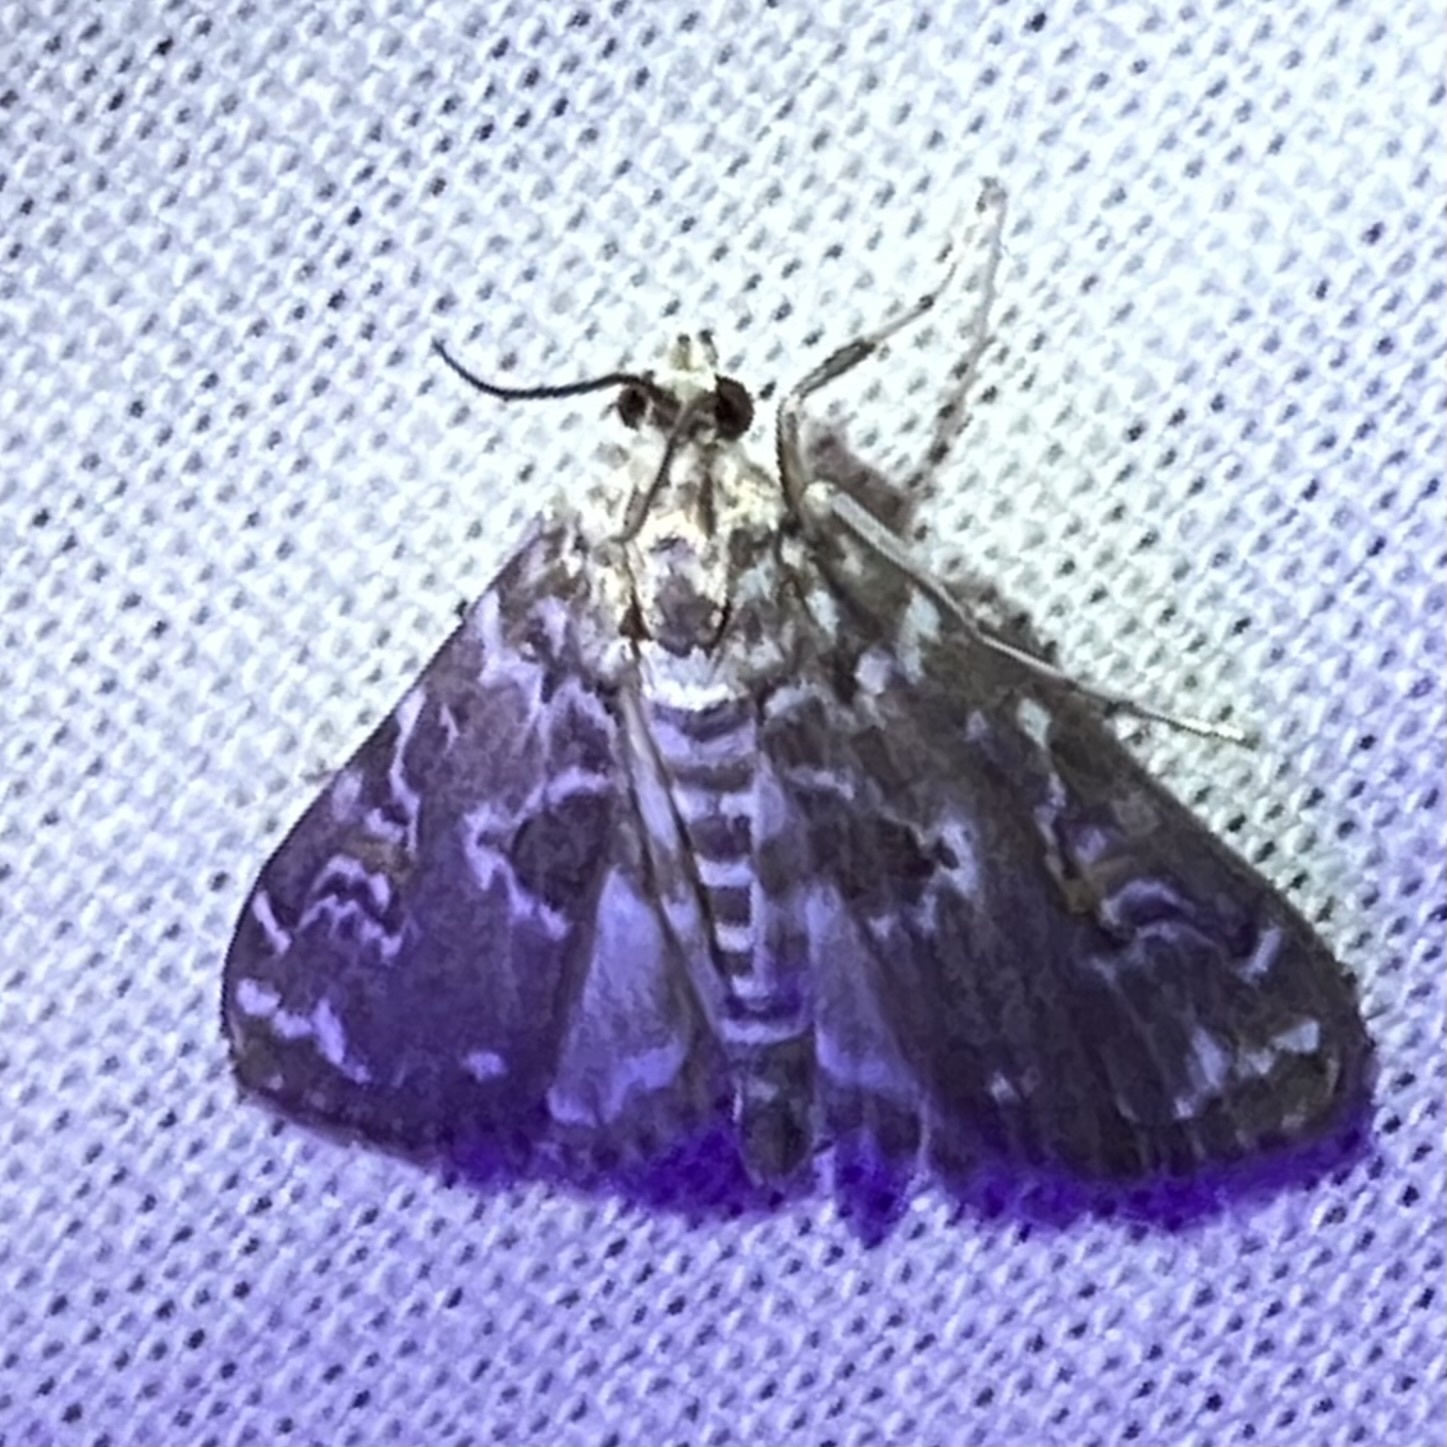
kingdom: Animalia
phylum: Arthropoda
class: Insecta
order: Lepidoptera
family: Crambidae
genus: Elophila
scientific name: Elophila gyralis
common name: Waterlily borer moth
